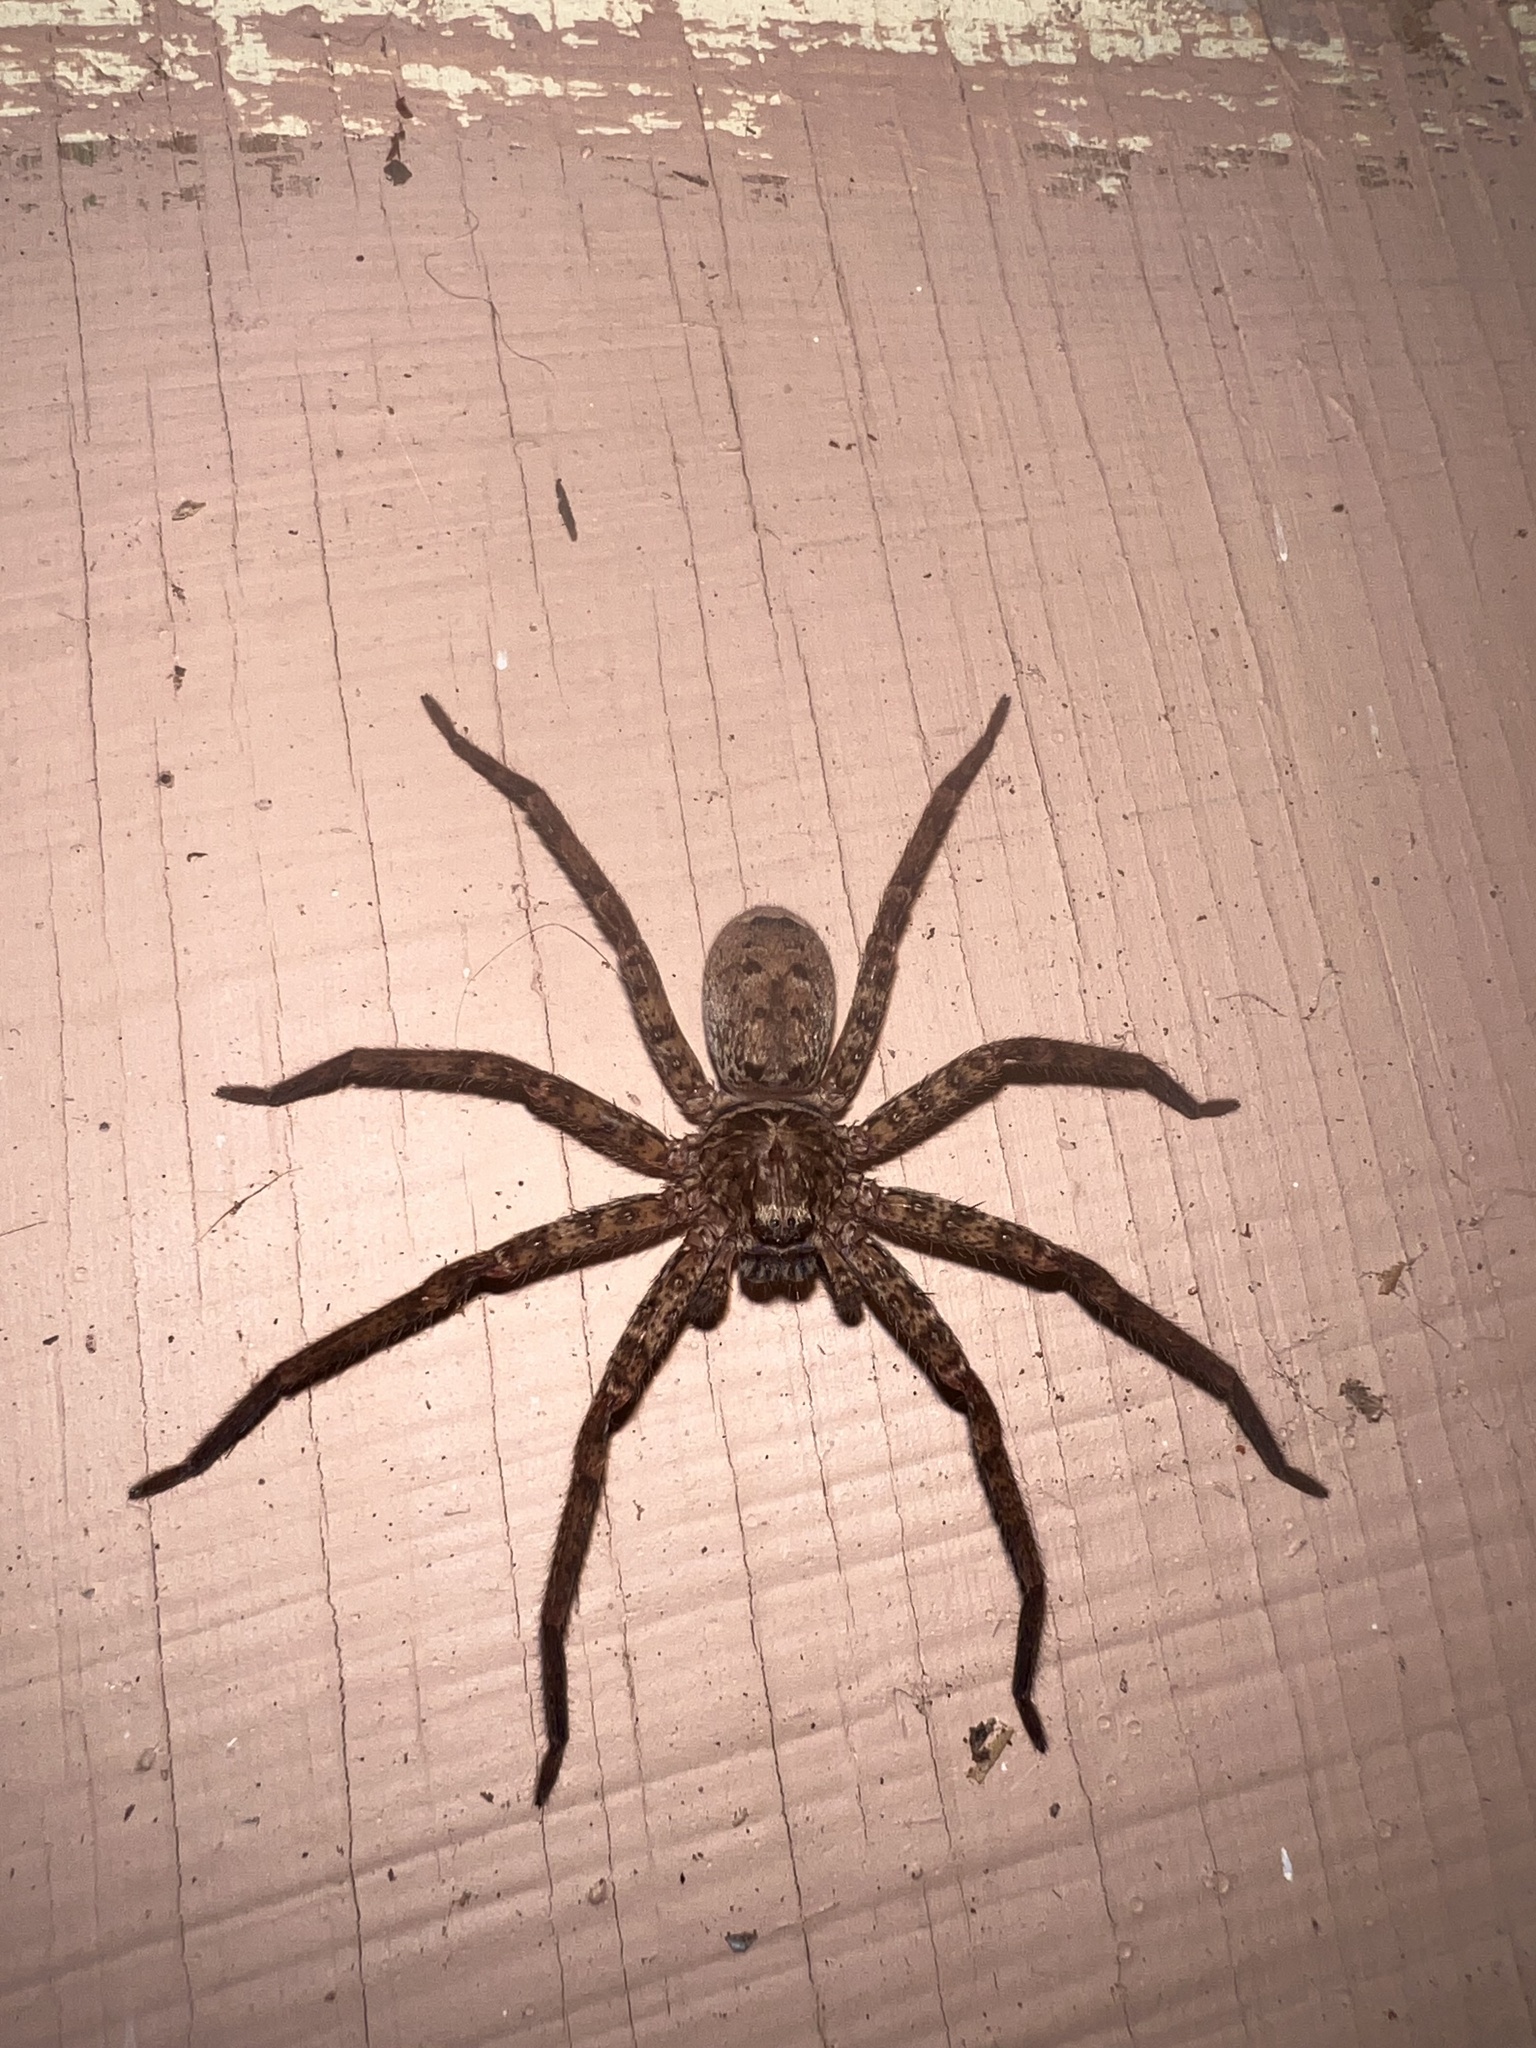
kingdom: Animalia
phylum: Arthropoda
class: Arachnida
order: Araneae
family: Sparassidae
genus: Heteropoda
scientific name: Heteropoda jugulans
